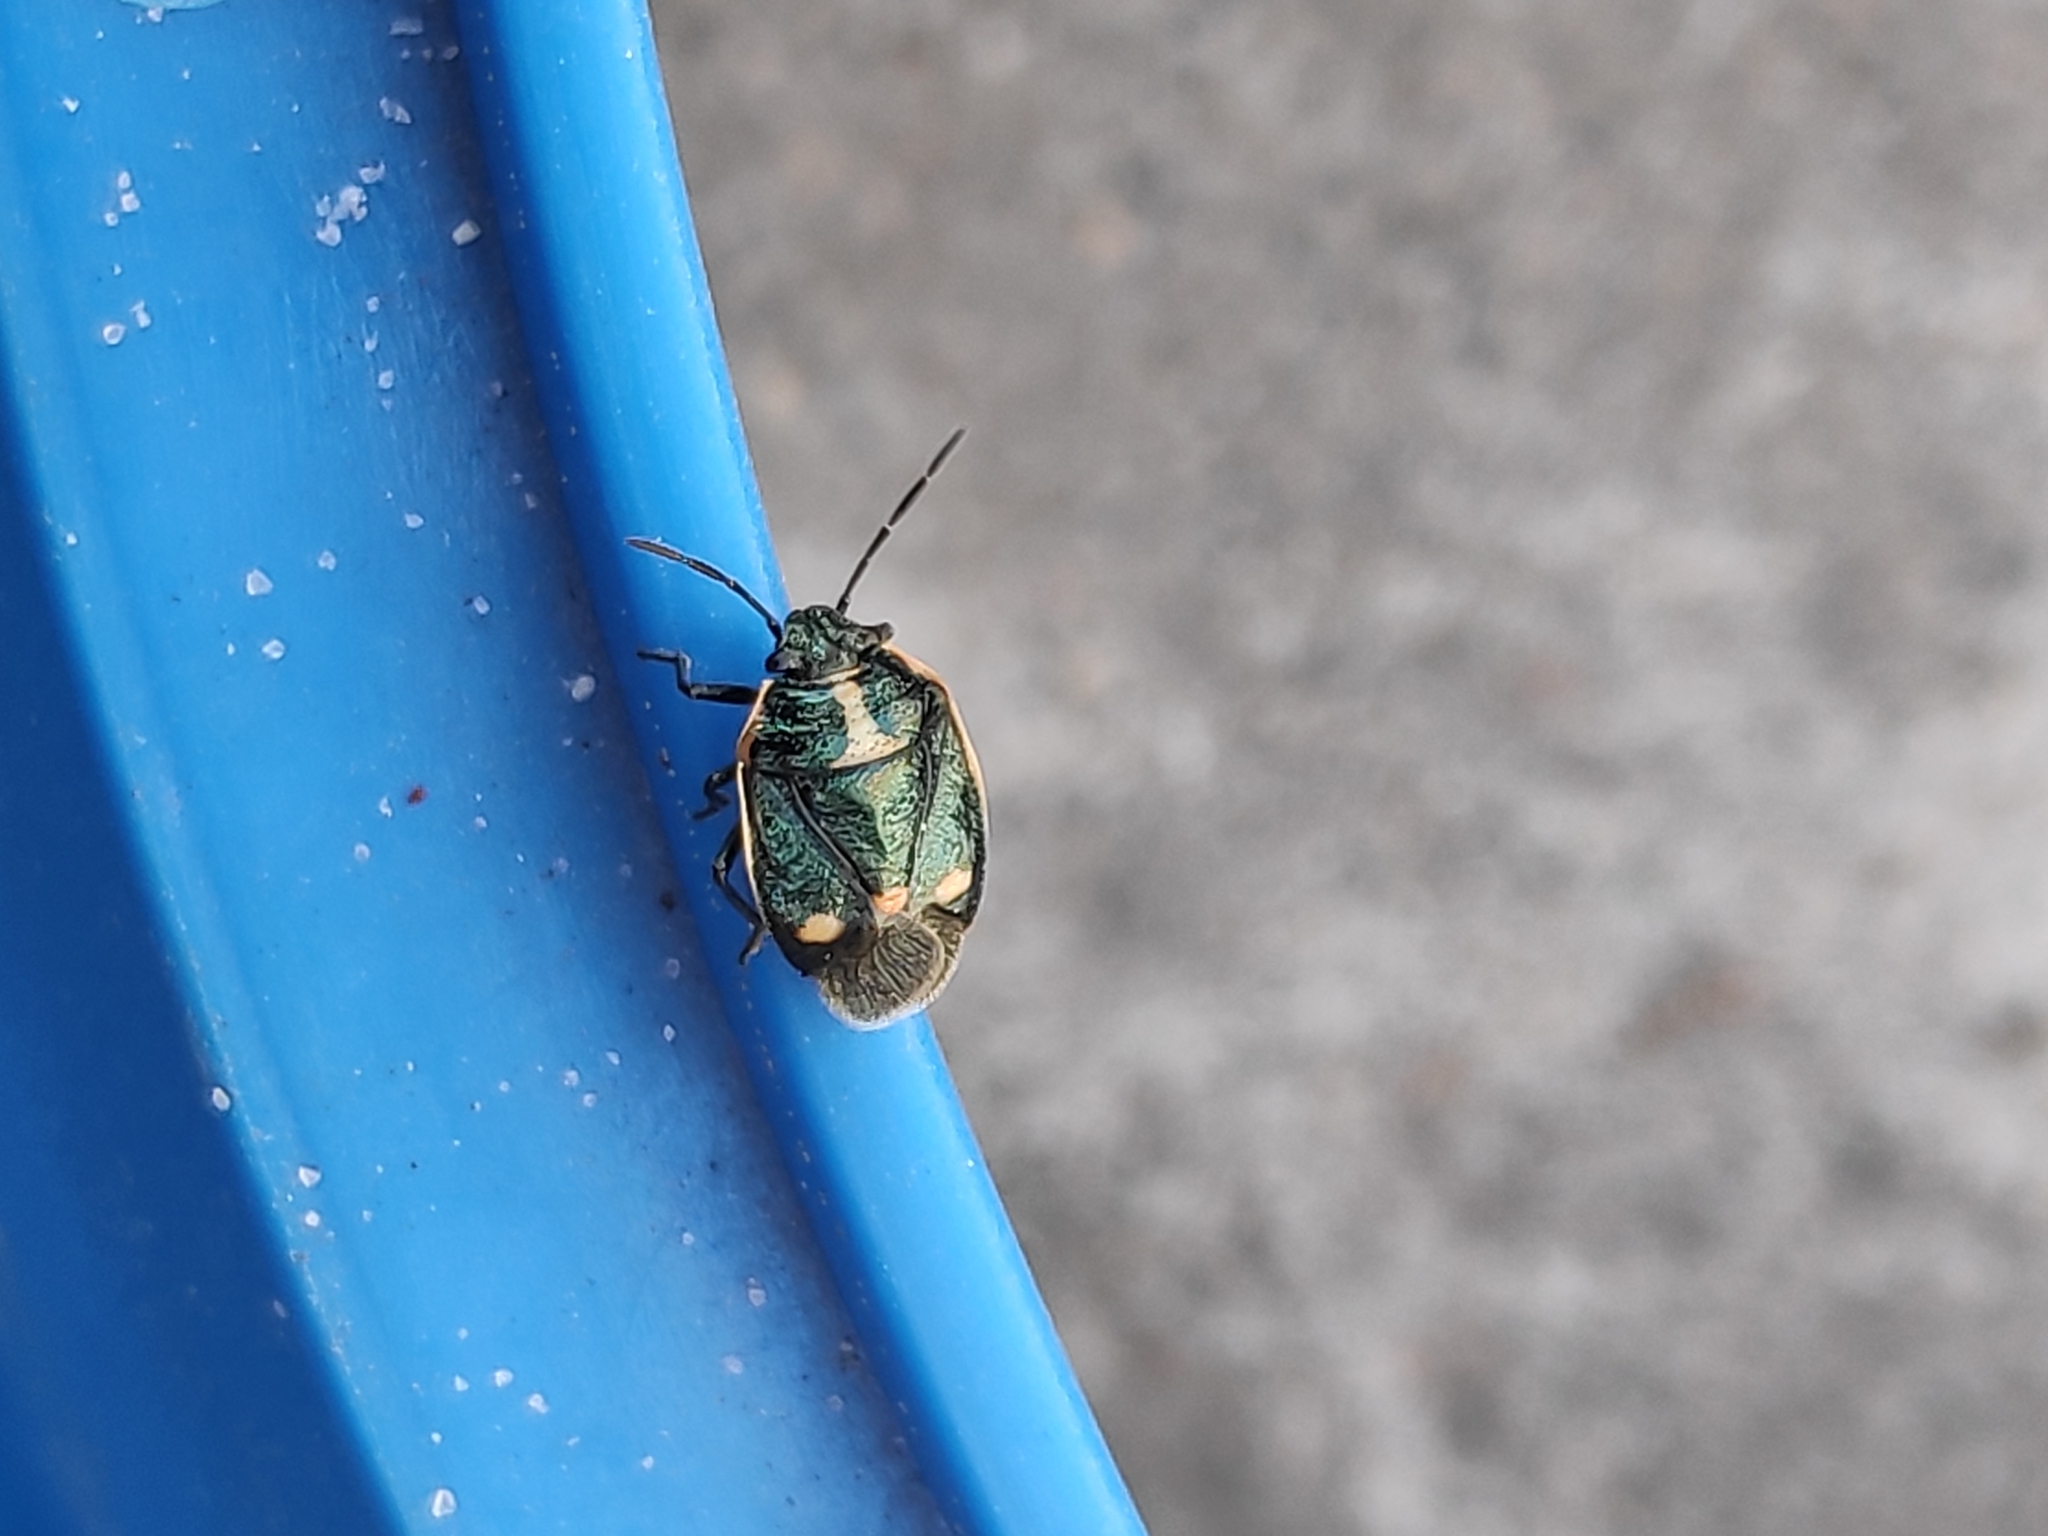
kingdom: Animalia
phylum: Arthropoda
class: Insecta
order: Hemiptera
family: Pentatomidae
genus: Eurydema
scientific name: Eurydema oleracea
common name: Cabbage bug
